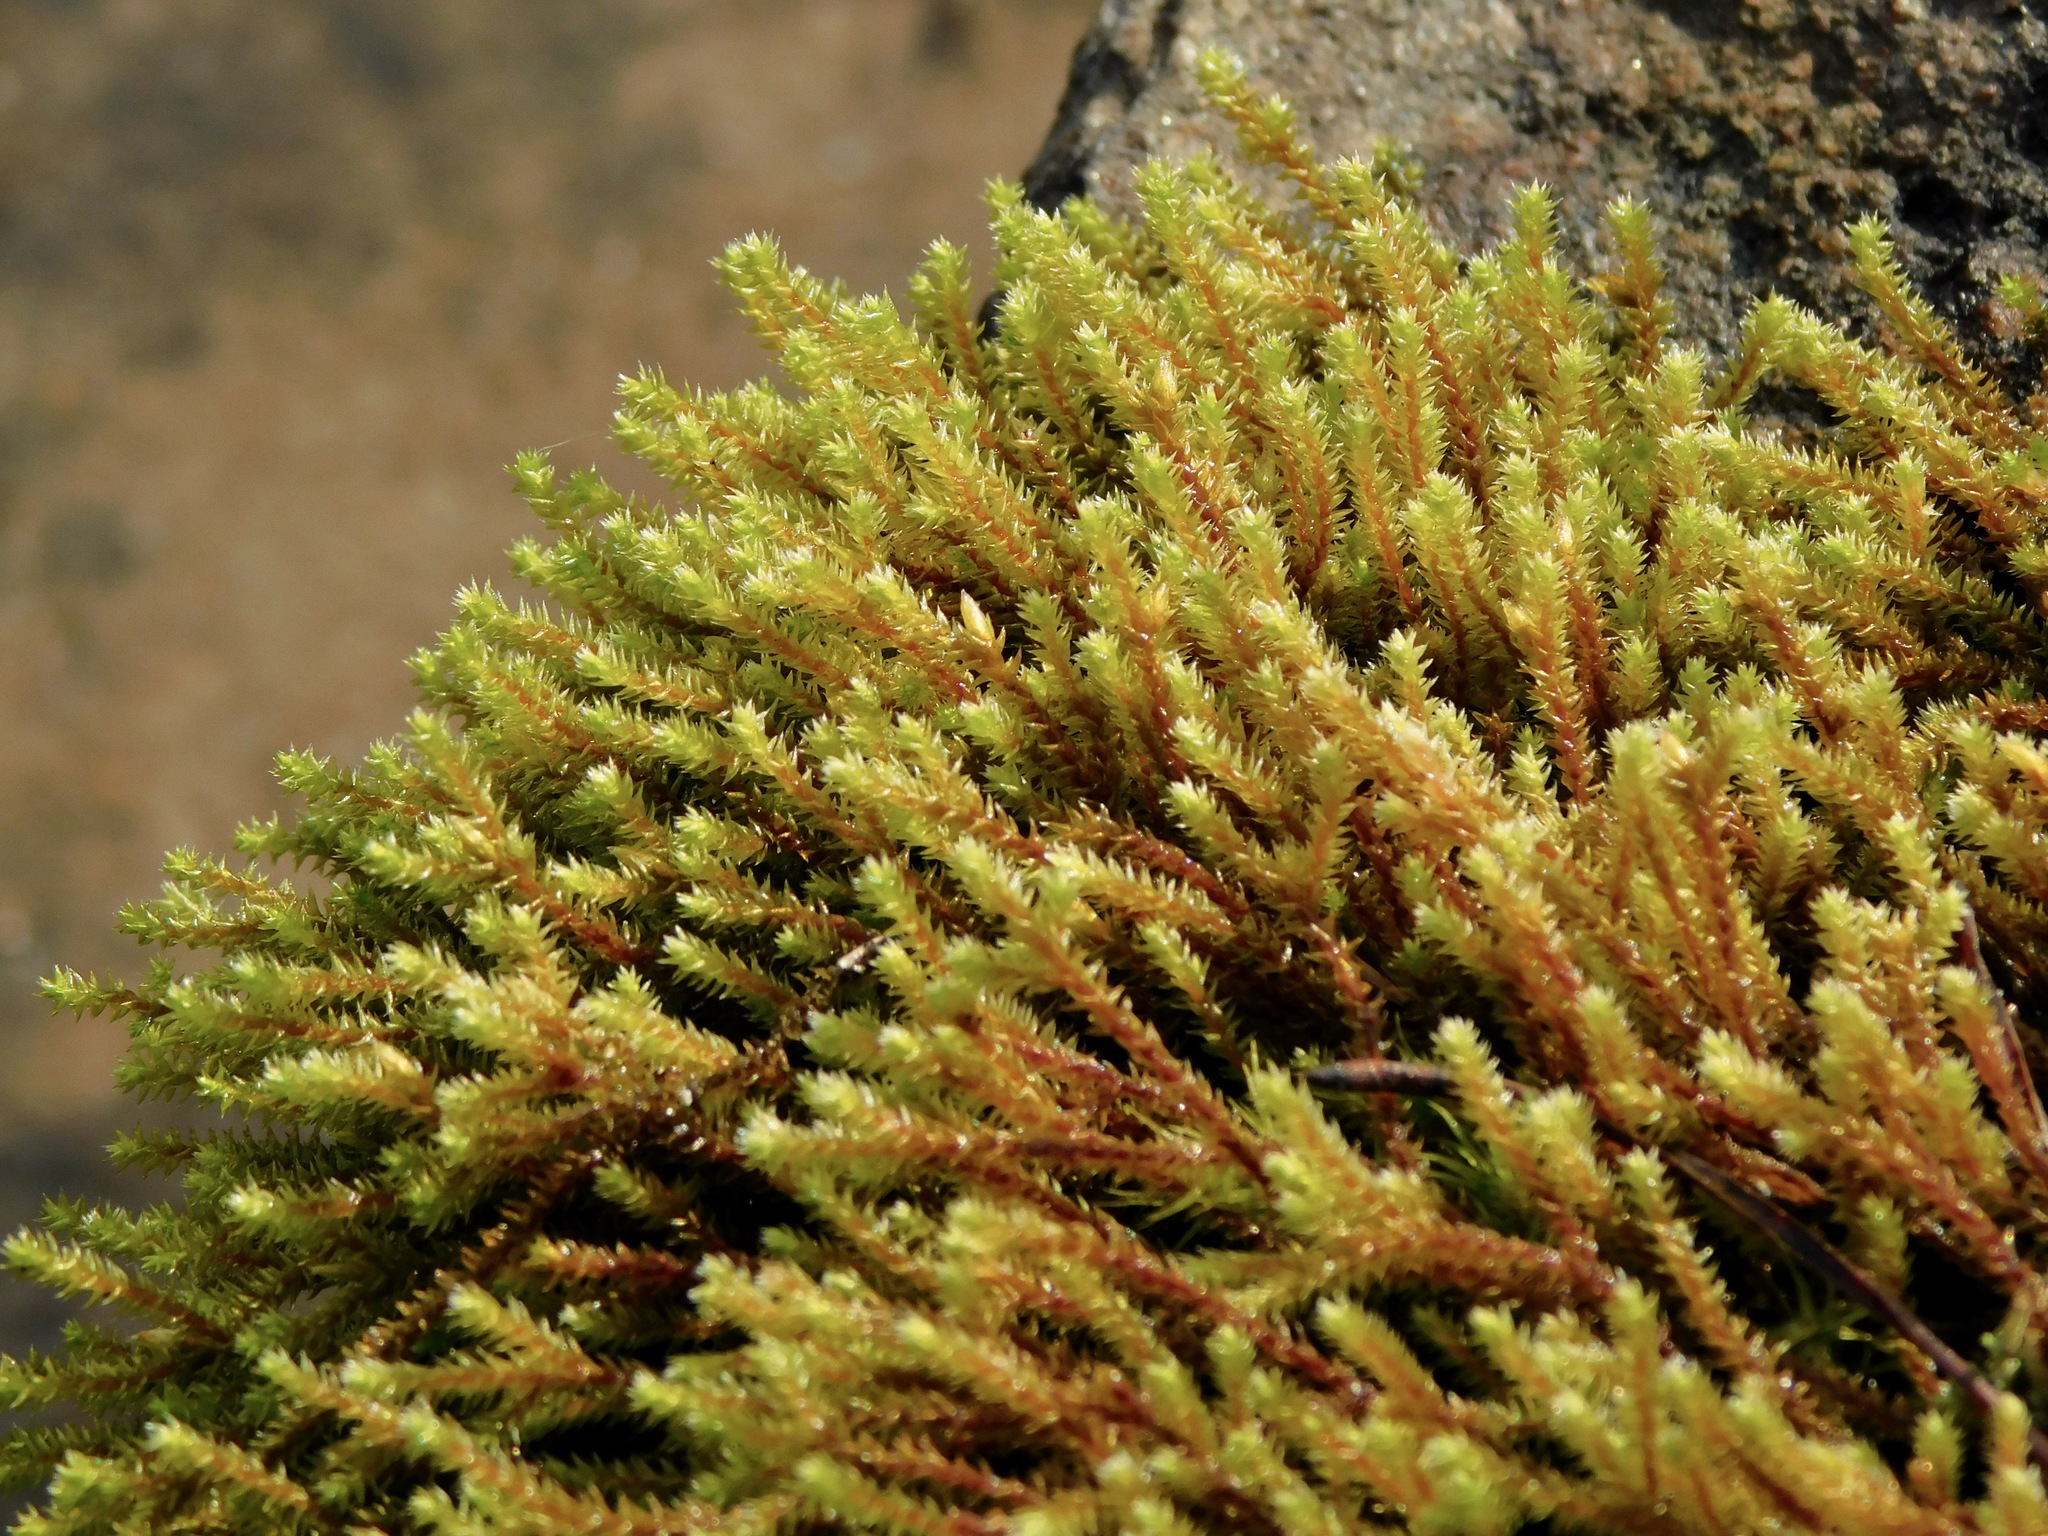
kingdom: Plantae
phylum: Bryophyta
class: Bryopsida
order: Hedwigiales
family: Hedwigiaceae
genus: Hedwigia
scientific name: Hedwigia ciliata
